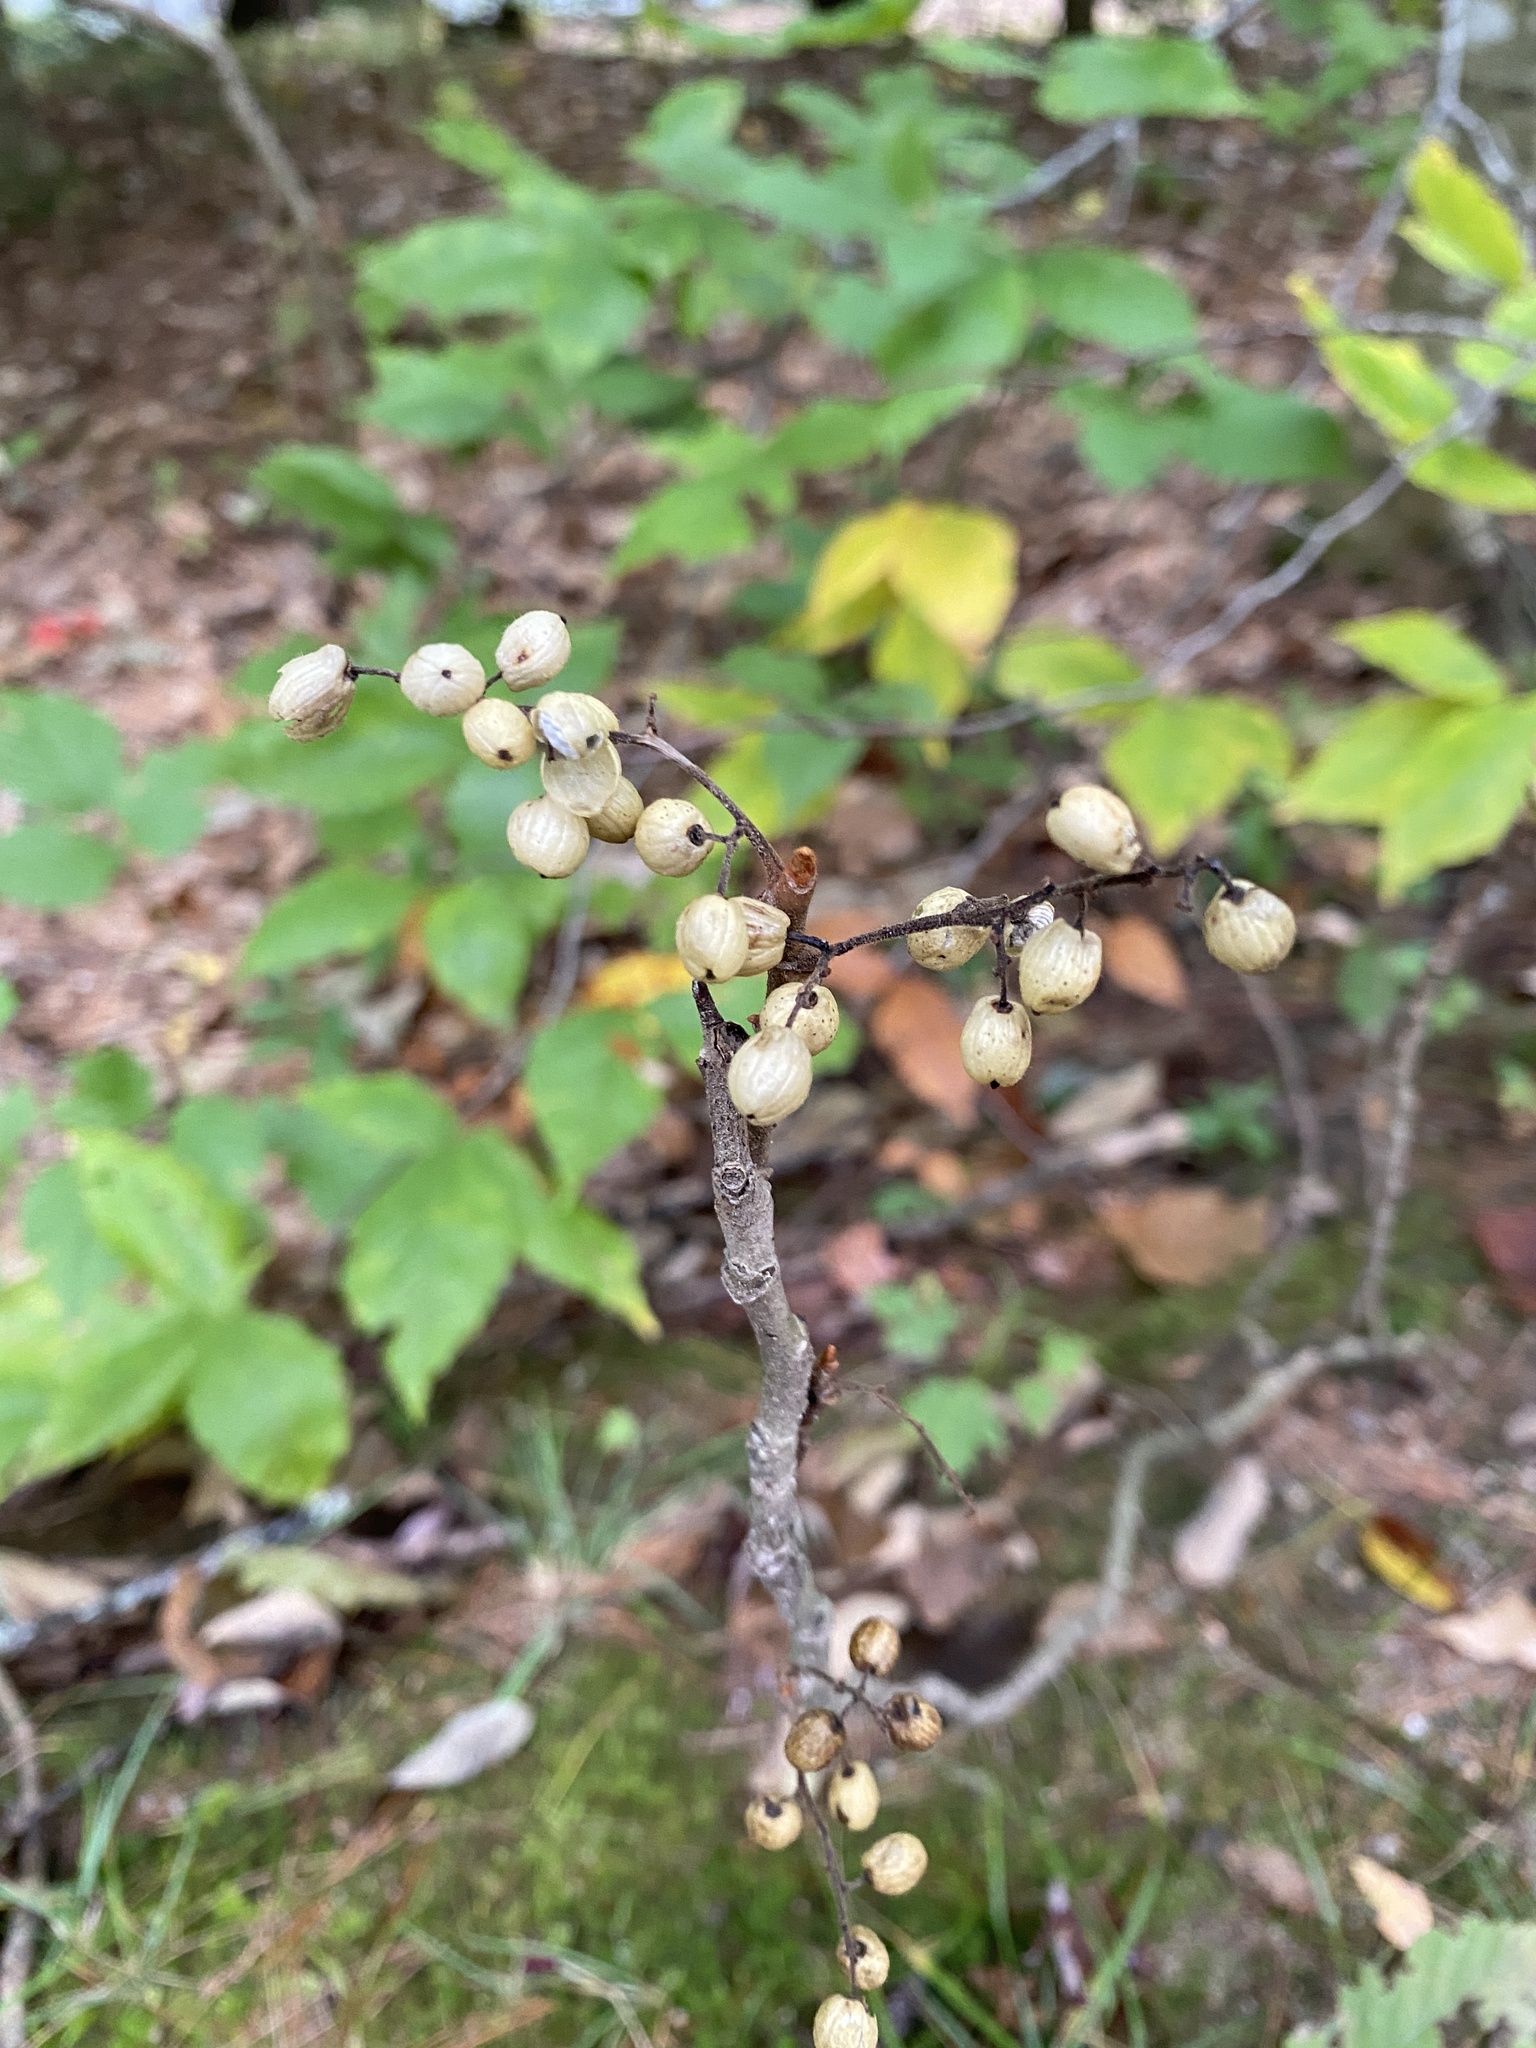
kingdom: Plantae
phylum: Tracheophyta
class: Magnoliopsida
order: Sapindales
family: Anacardiaceae
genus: Toxicodendron
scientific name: Toxicodendron radicans
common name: Poison ivy
